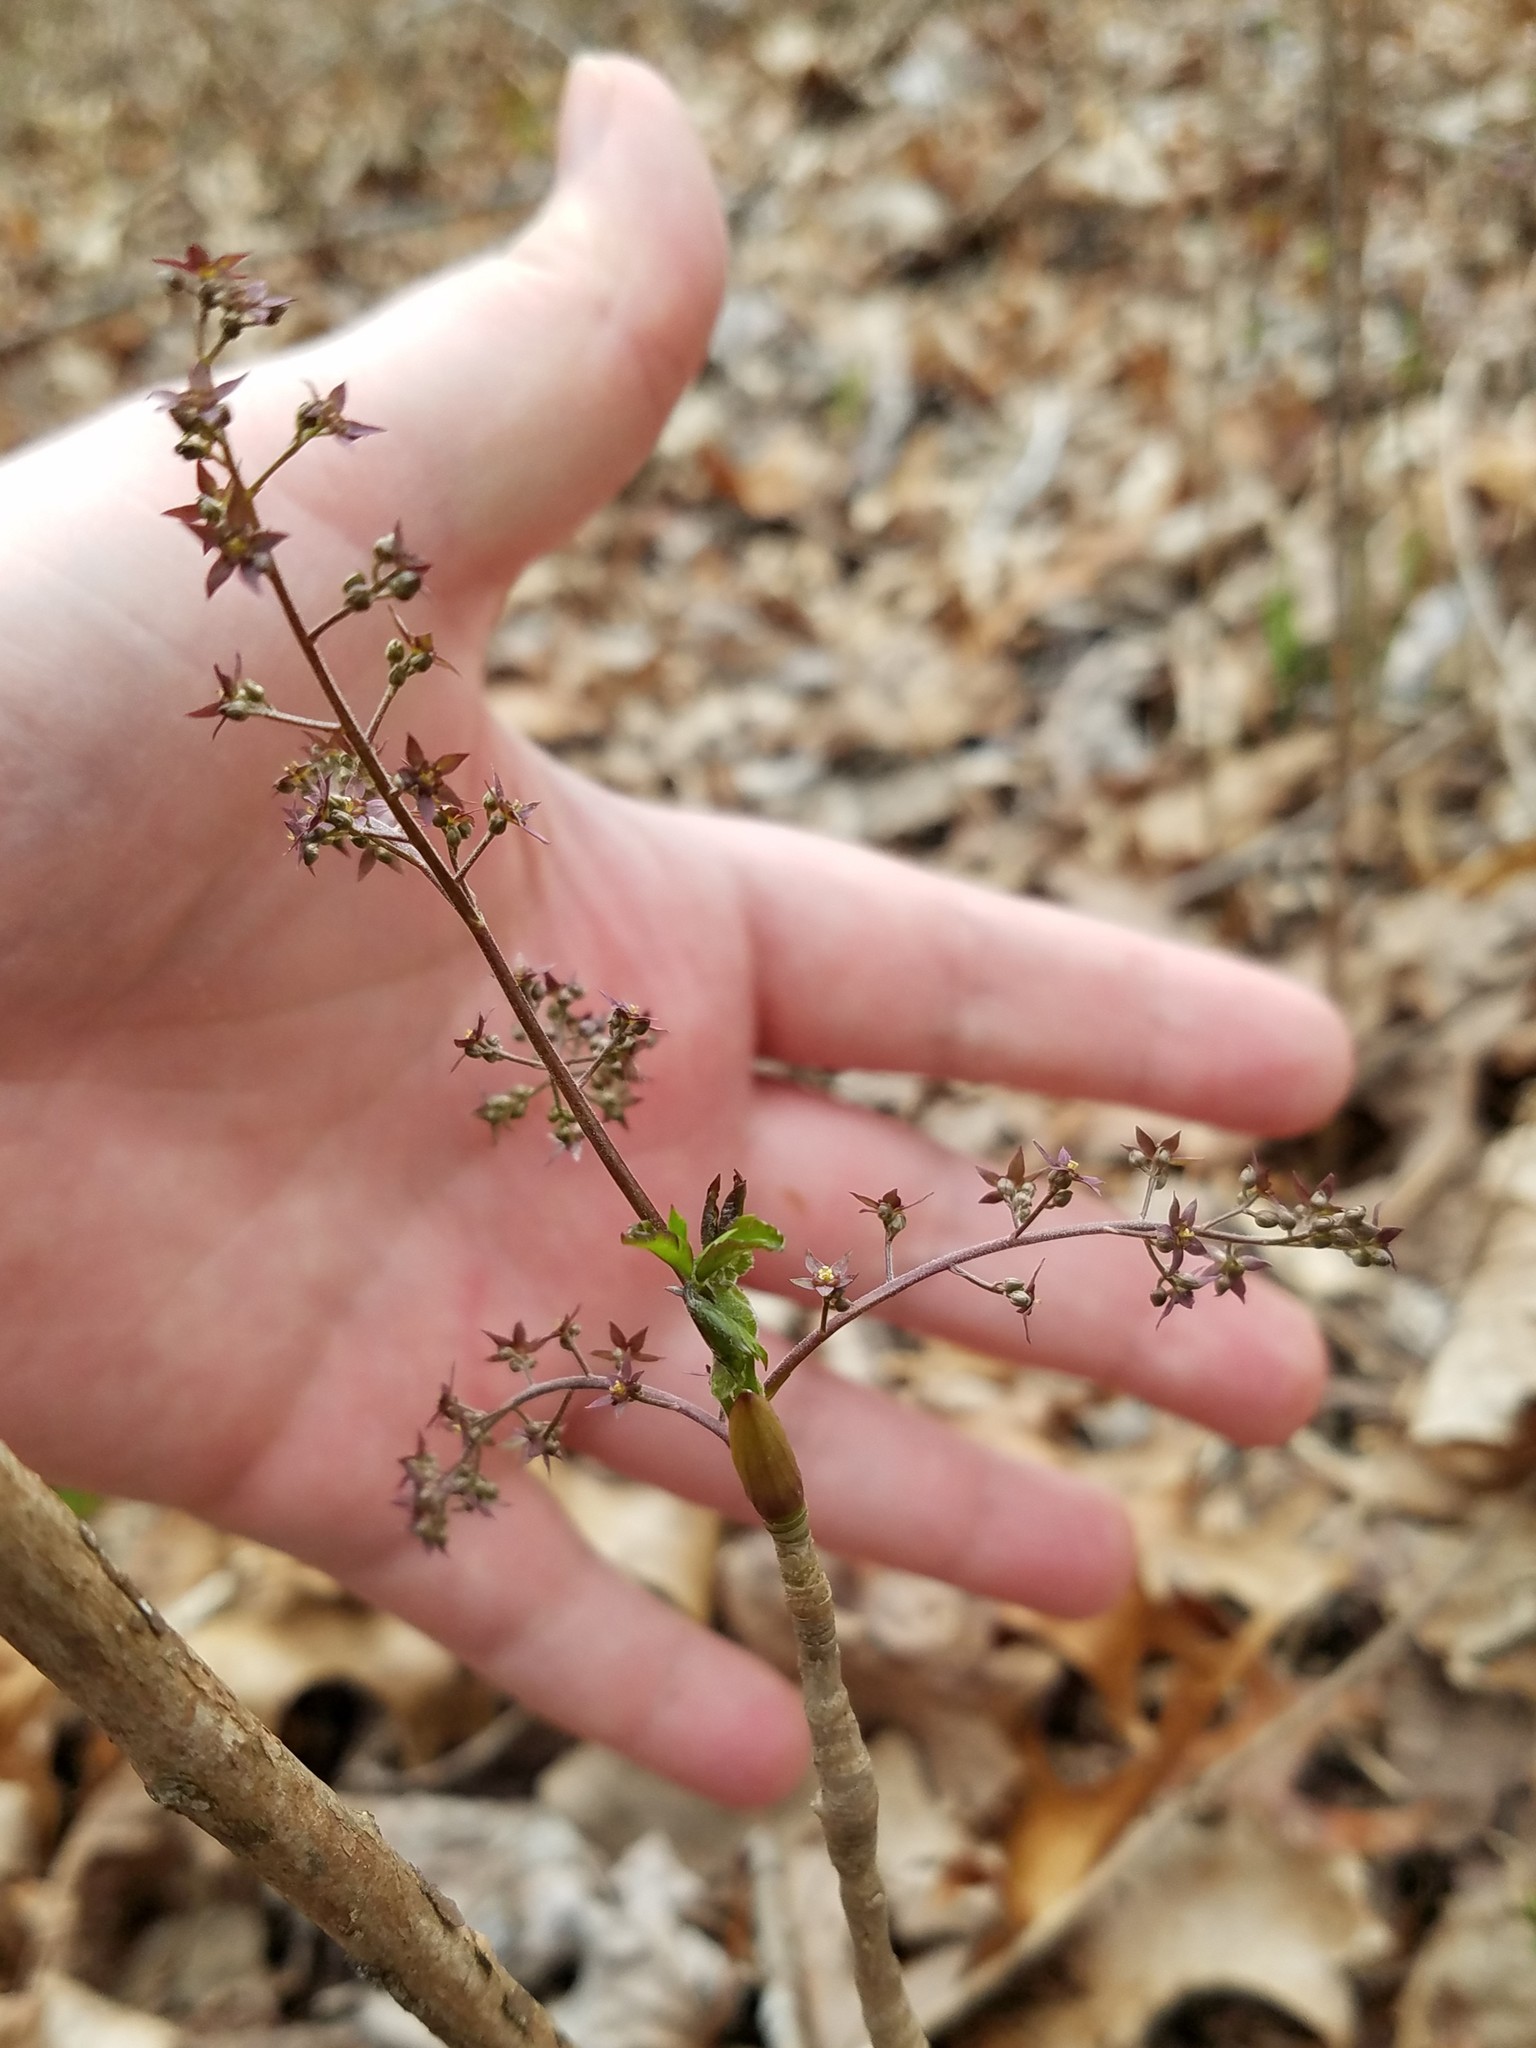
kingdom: Plantae
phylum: Tracheophyta
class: Magnoliopsida
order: Ranunculales
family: Ranunculaceae
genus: Xanthorhiza
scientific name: Xanthorhiza simplicissima
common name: Yellowroot
